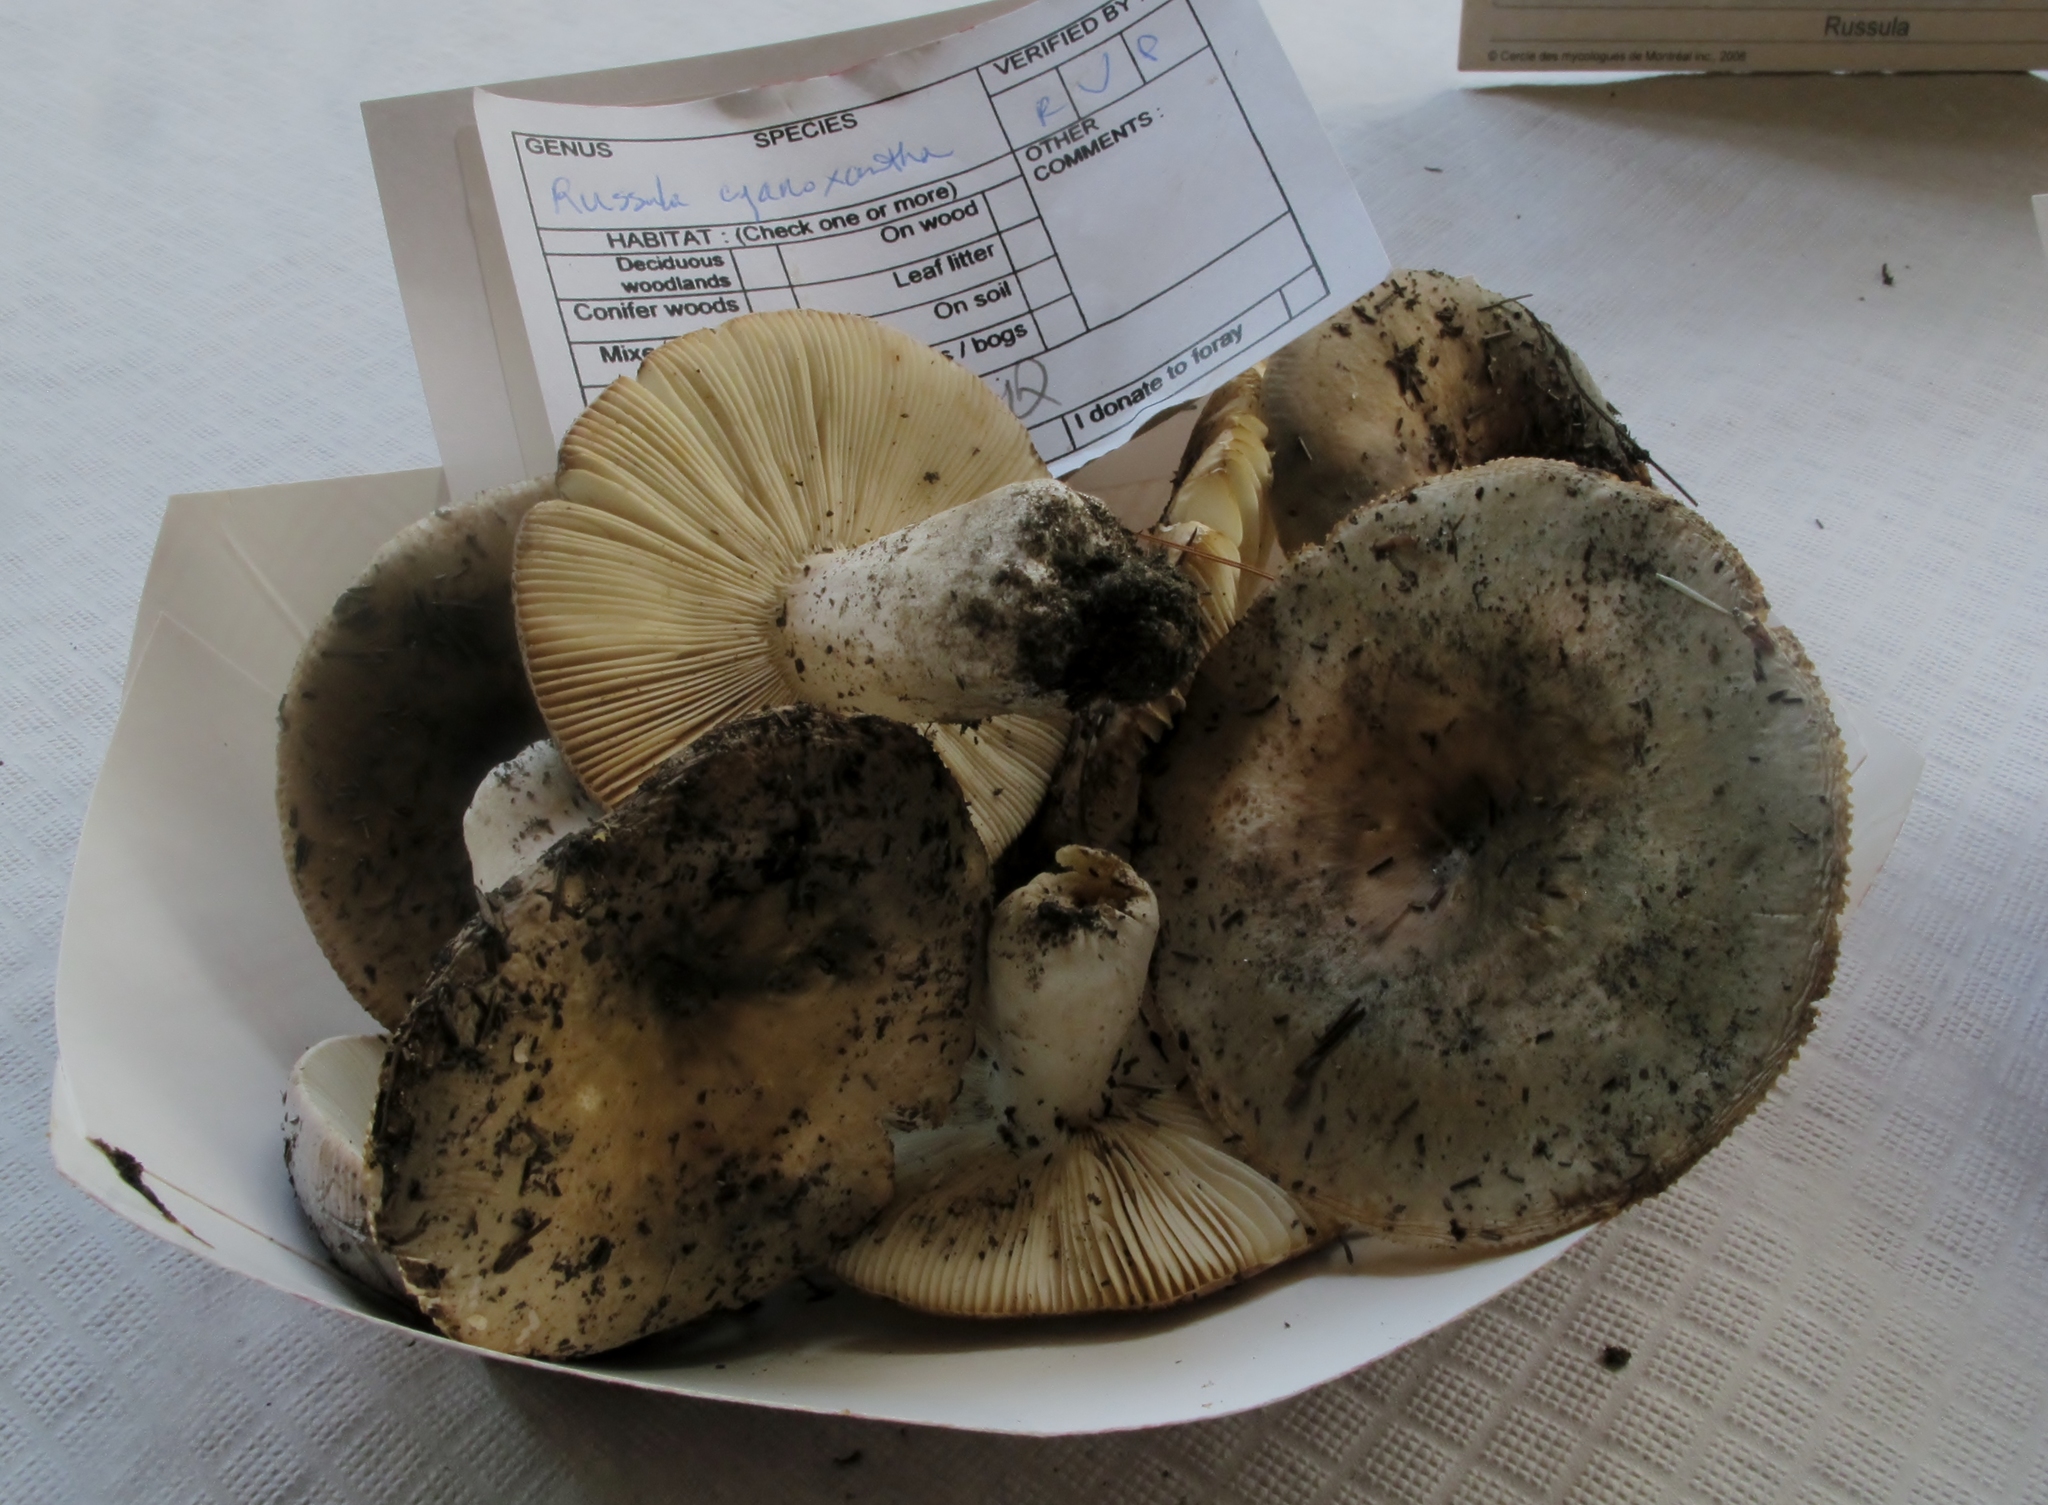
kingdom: Fungi
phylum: Basidiomycota
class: Agaricomycetes
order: Russulales
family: Russulaceae
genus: Russula
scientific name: Russula cyanoxantha
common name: Charcoal burner
